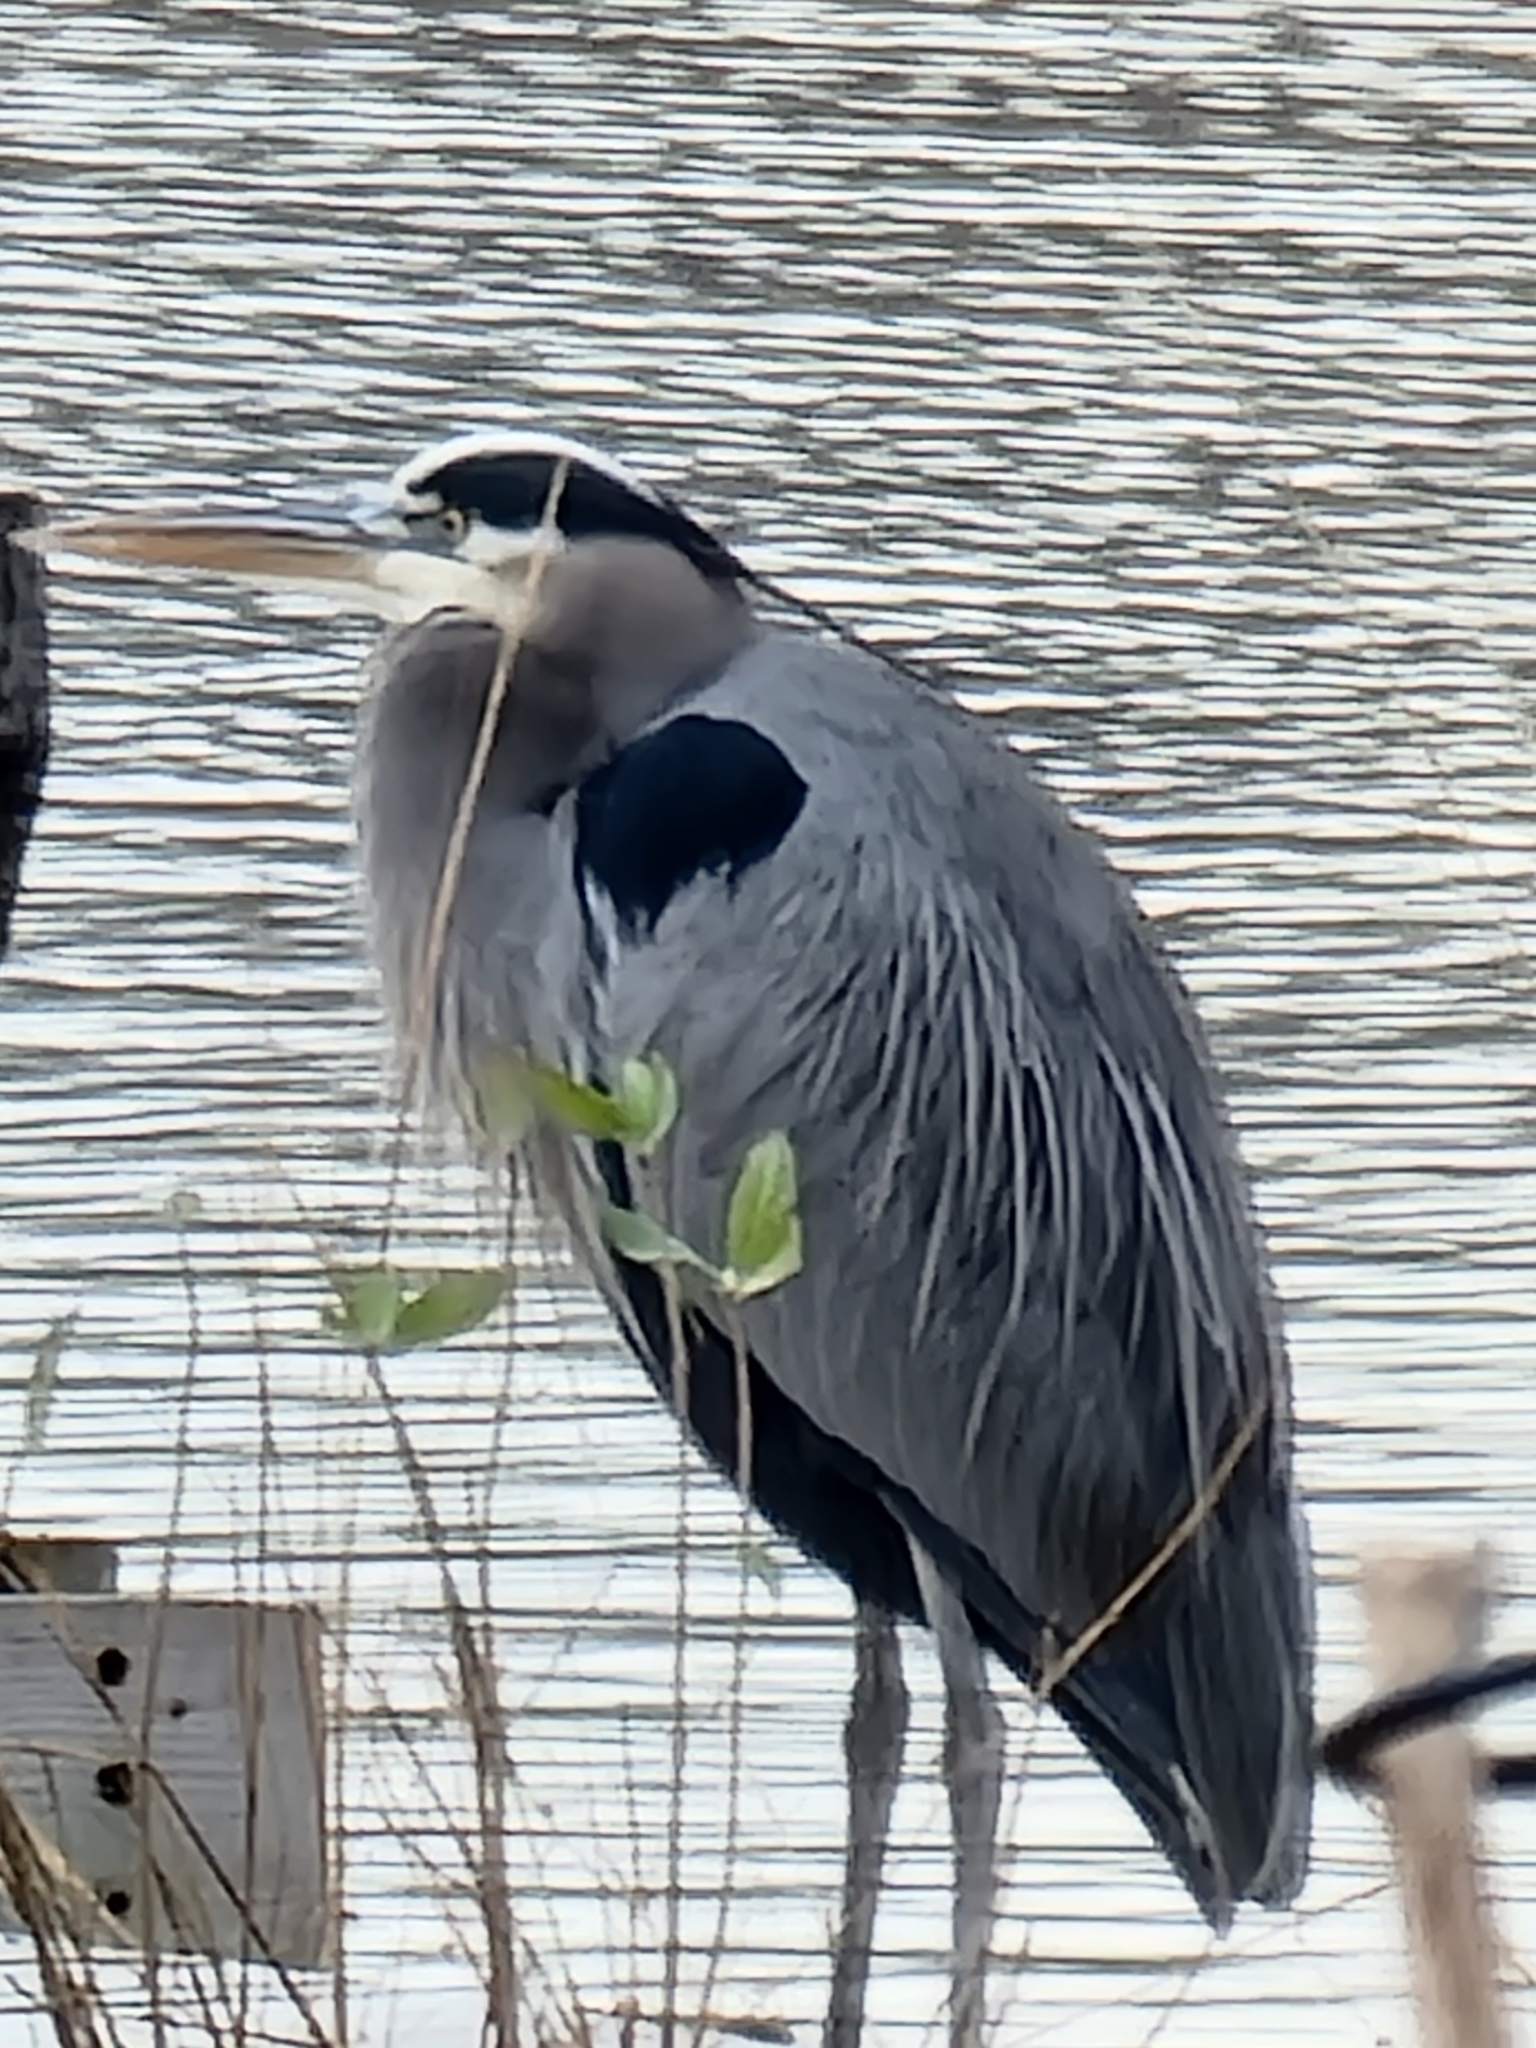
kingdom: Animalia
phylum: Chordata
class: Aves
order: Pelecaniformes
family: Ardeidae
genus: Ardea
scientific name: Ardea herodias
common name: Great blue heron
